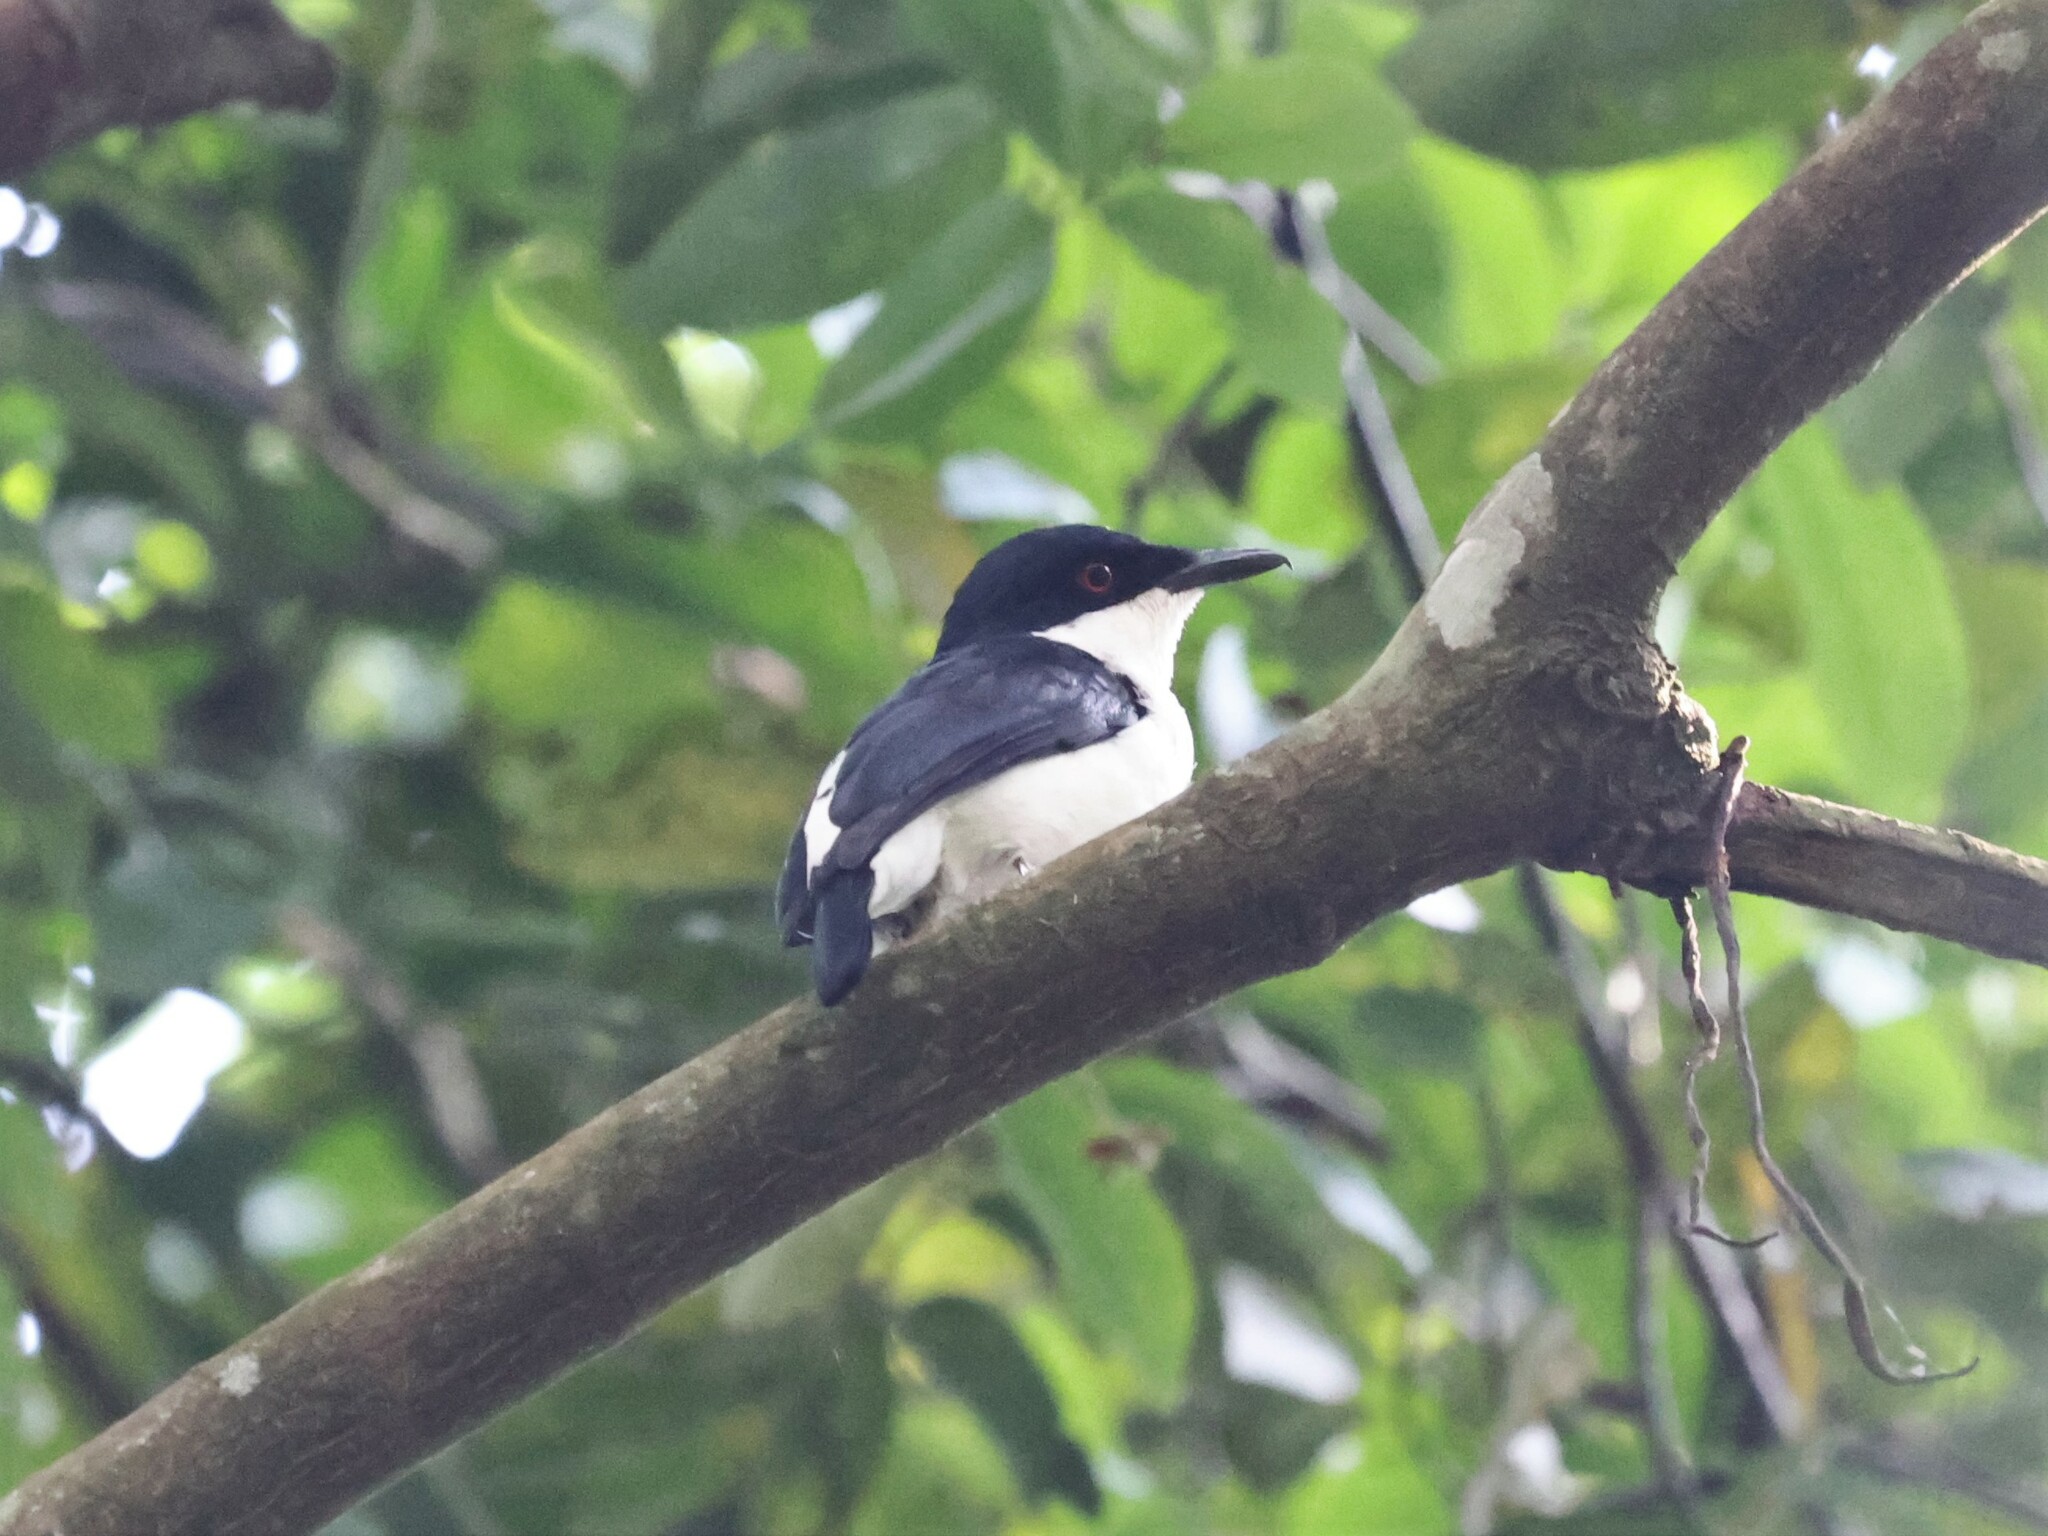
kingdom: Animalia
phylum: Chordata
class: Aves
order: Passeriformes
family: Platysteiridae
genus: Megabyas
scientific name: Megabyas flammulatus
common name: African shrike-flycatcher
